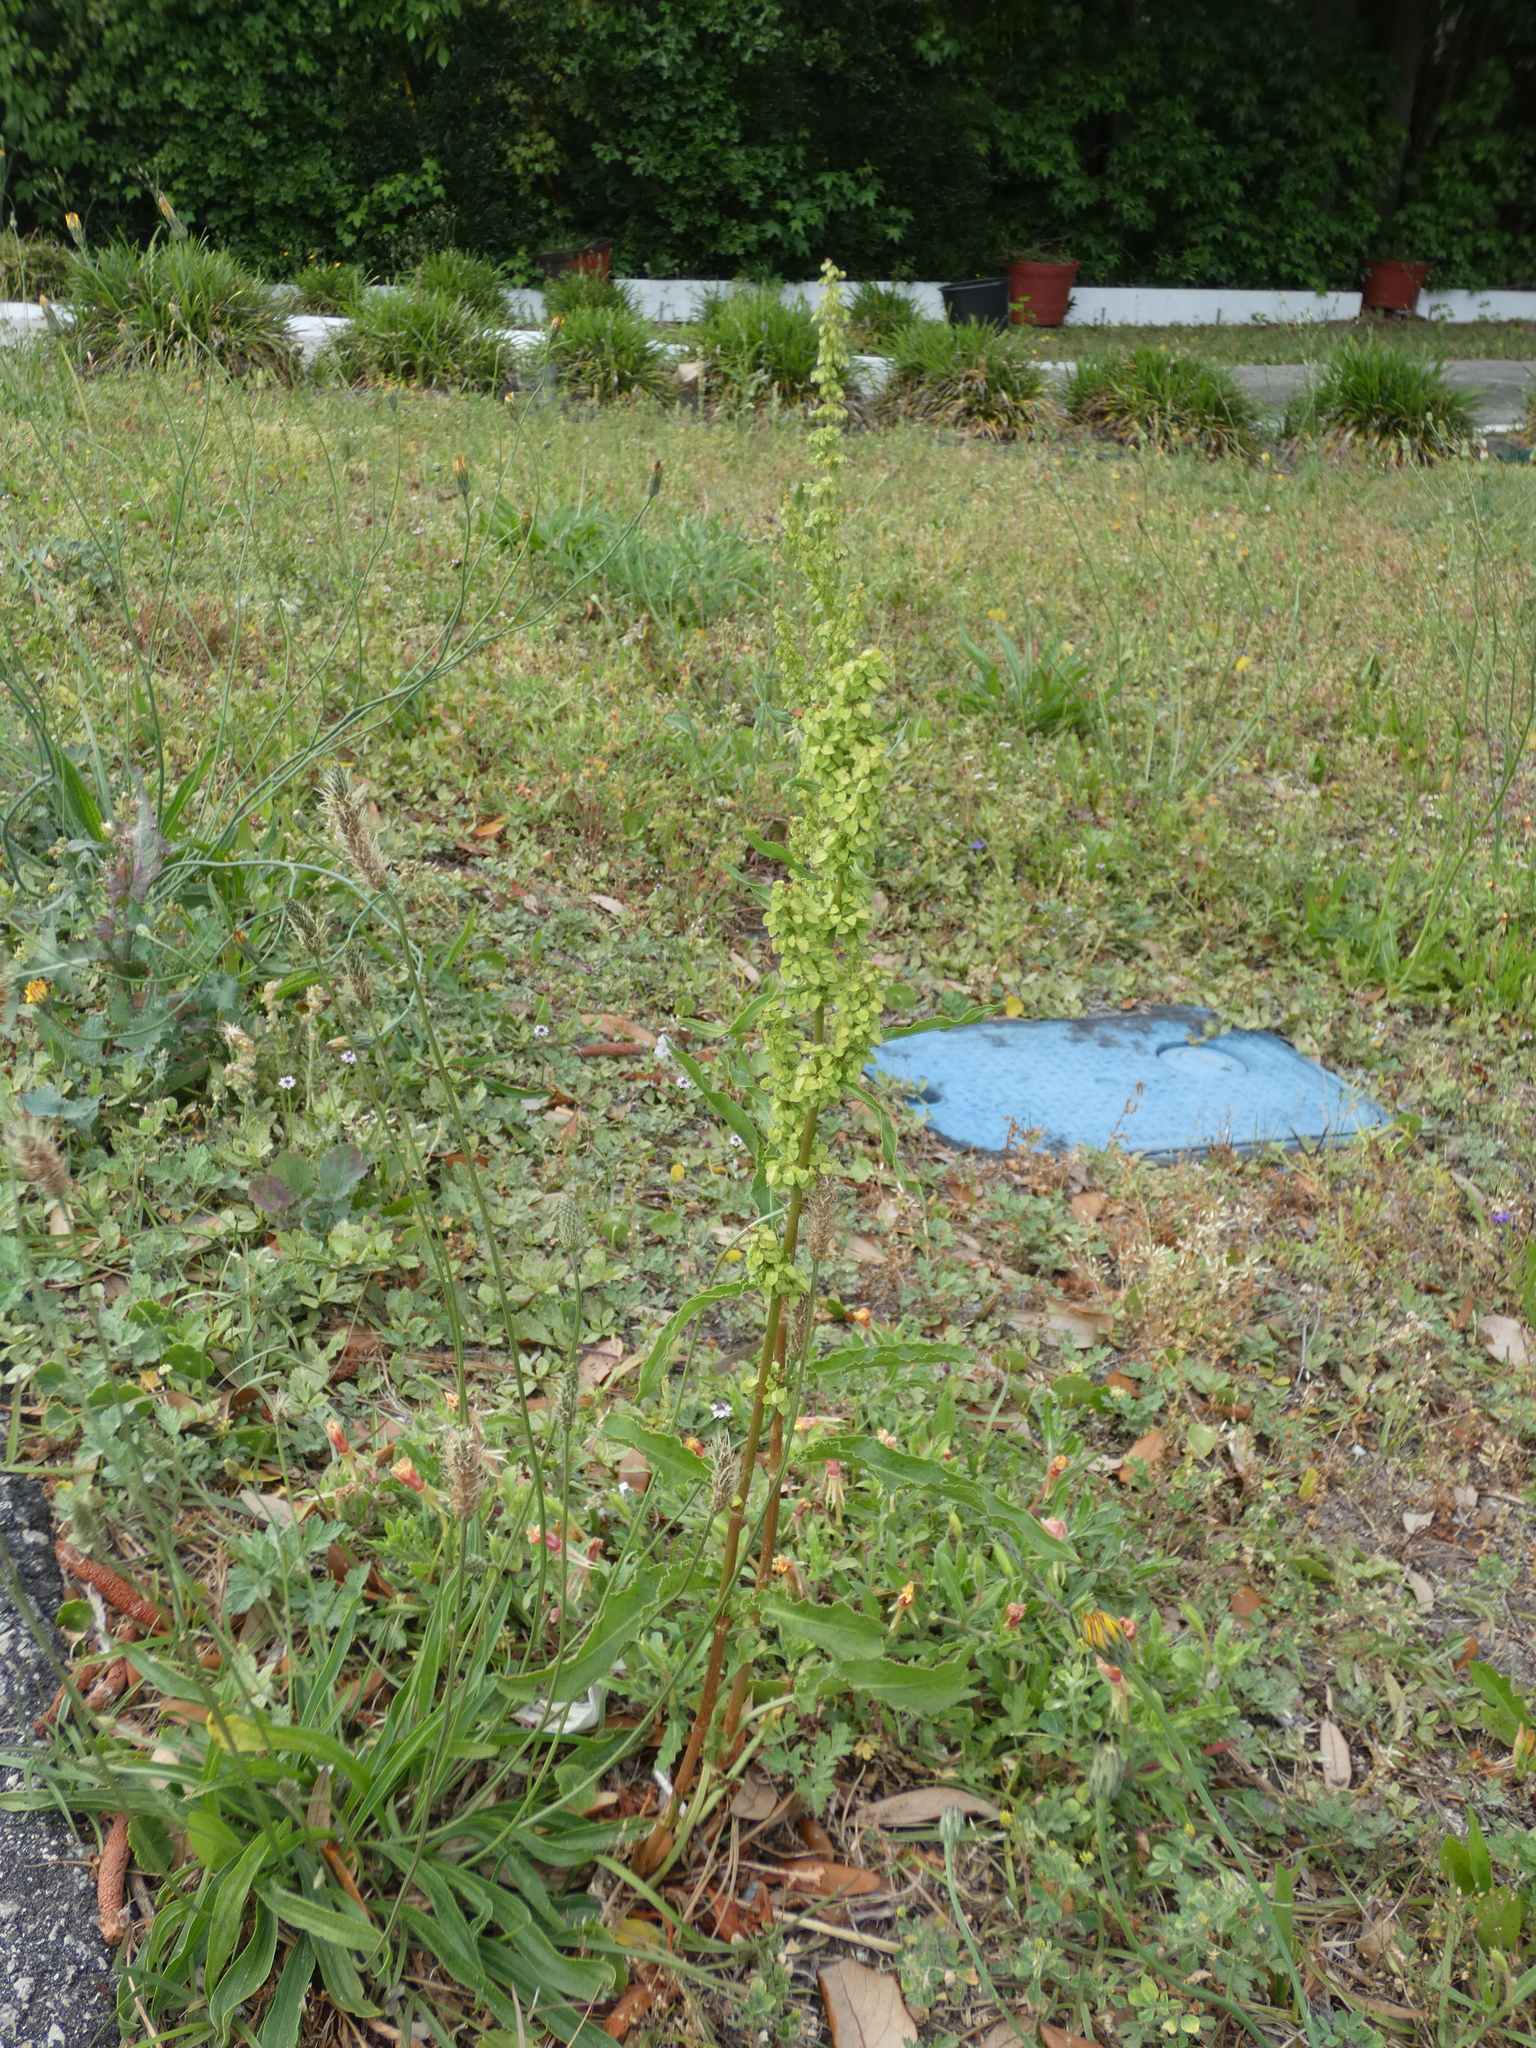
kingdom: Plantae
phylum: Tracheophyta
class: Magnoliopsida
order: Caryophyllales
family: Polygonaceae
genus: Rumex
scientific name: Rumex crispus
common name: Curled dock
